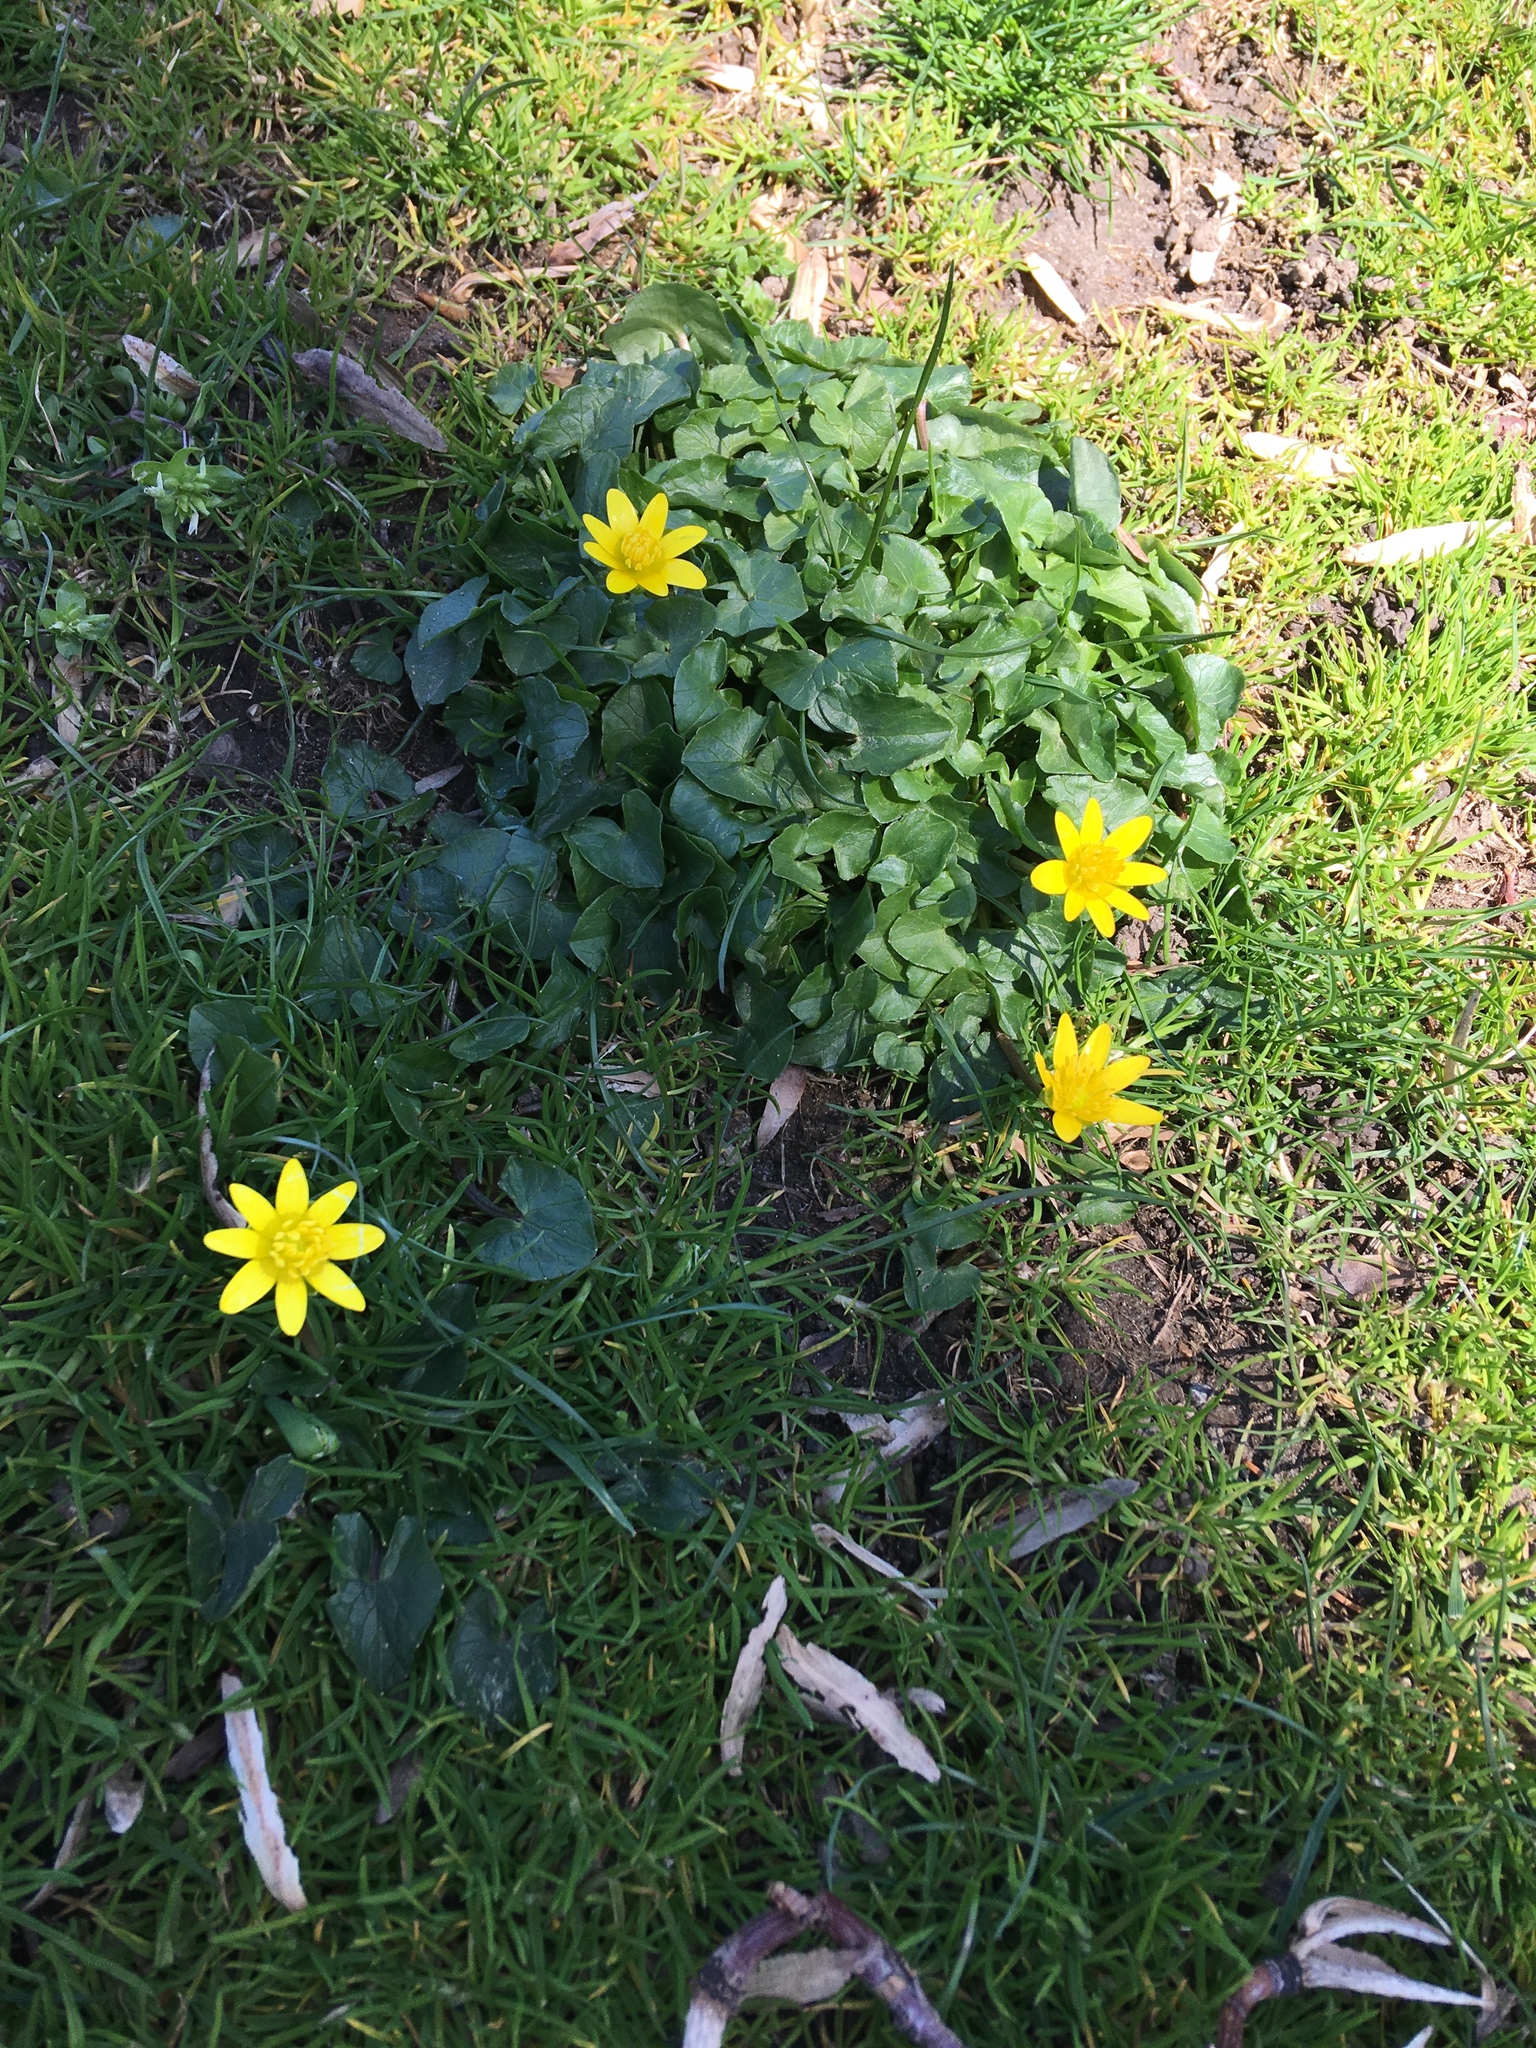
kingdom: Plantae
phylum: Tracheophyta
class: Magnoliopsida
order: Ranunculales
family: Ranunculaceae
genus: Ficaria
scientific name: Ficaria verna
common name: Lesser celandine
